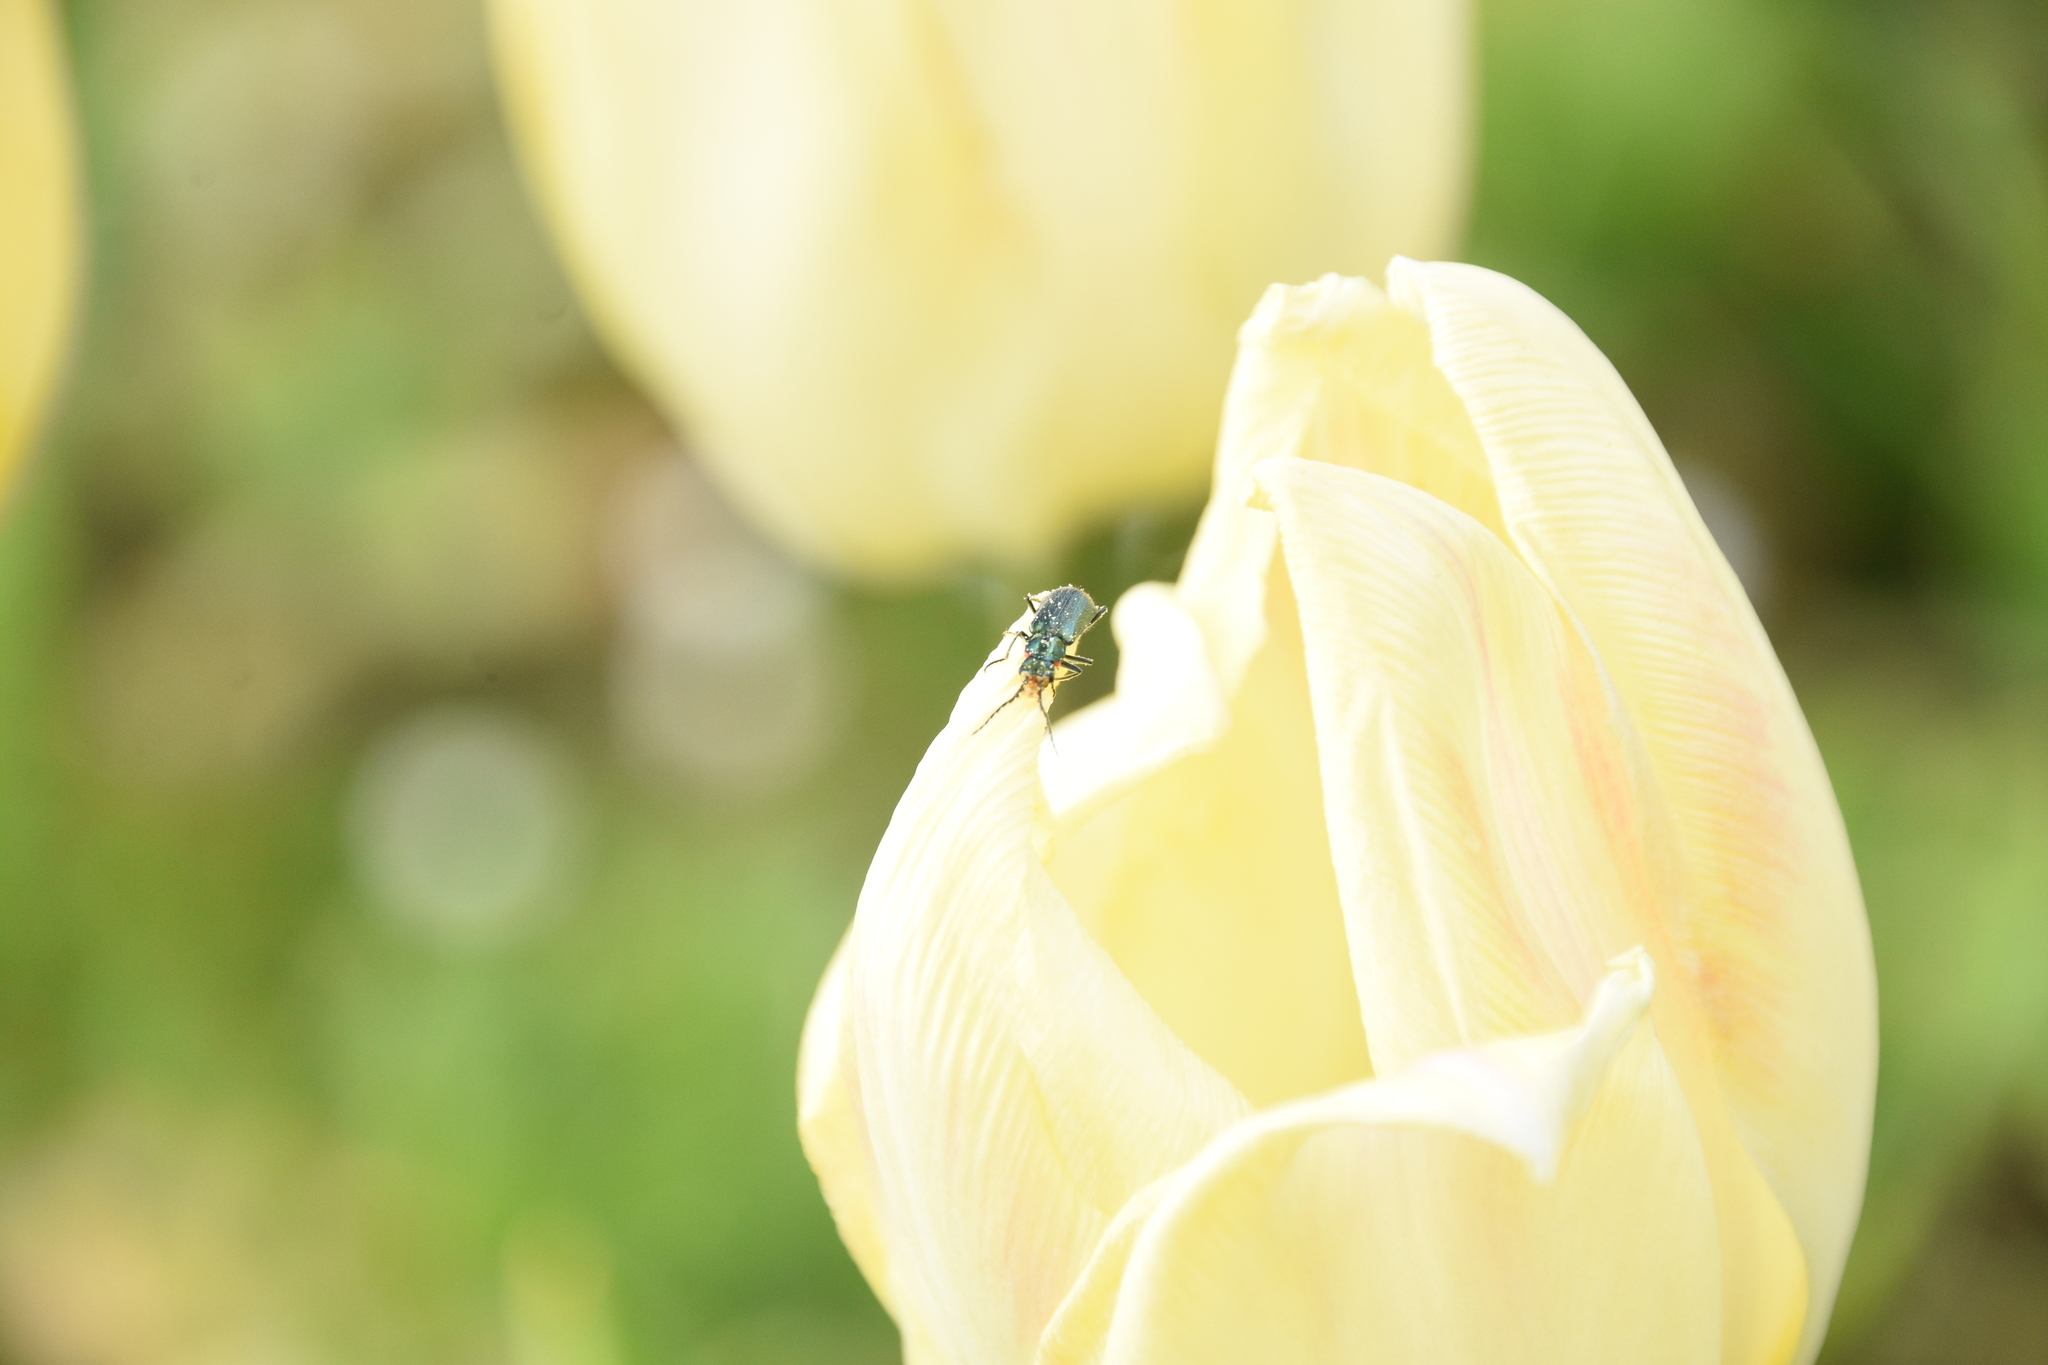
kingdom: Animalia
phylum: Arthropoda
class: Insecta
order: Coleoptera
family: Melyridae
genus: Malachius
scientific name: Malachius bipustulatus
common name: Malachite beetle
